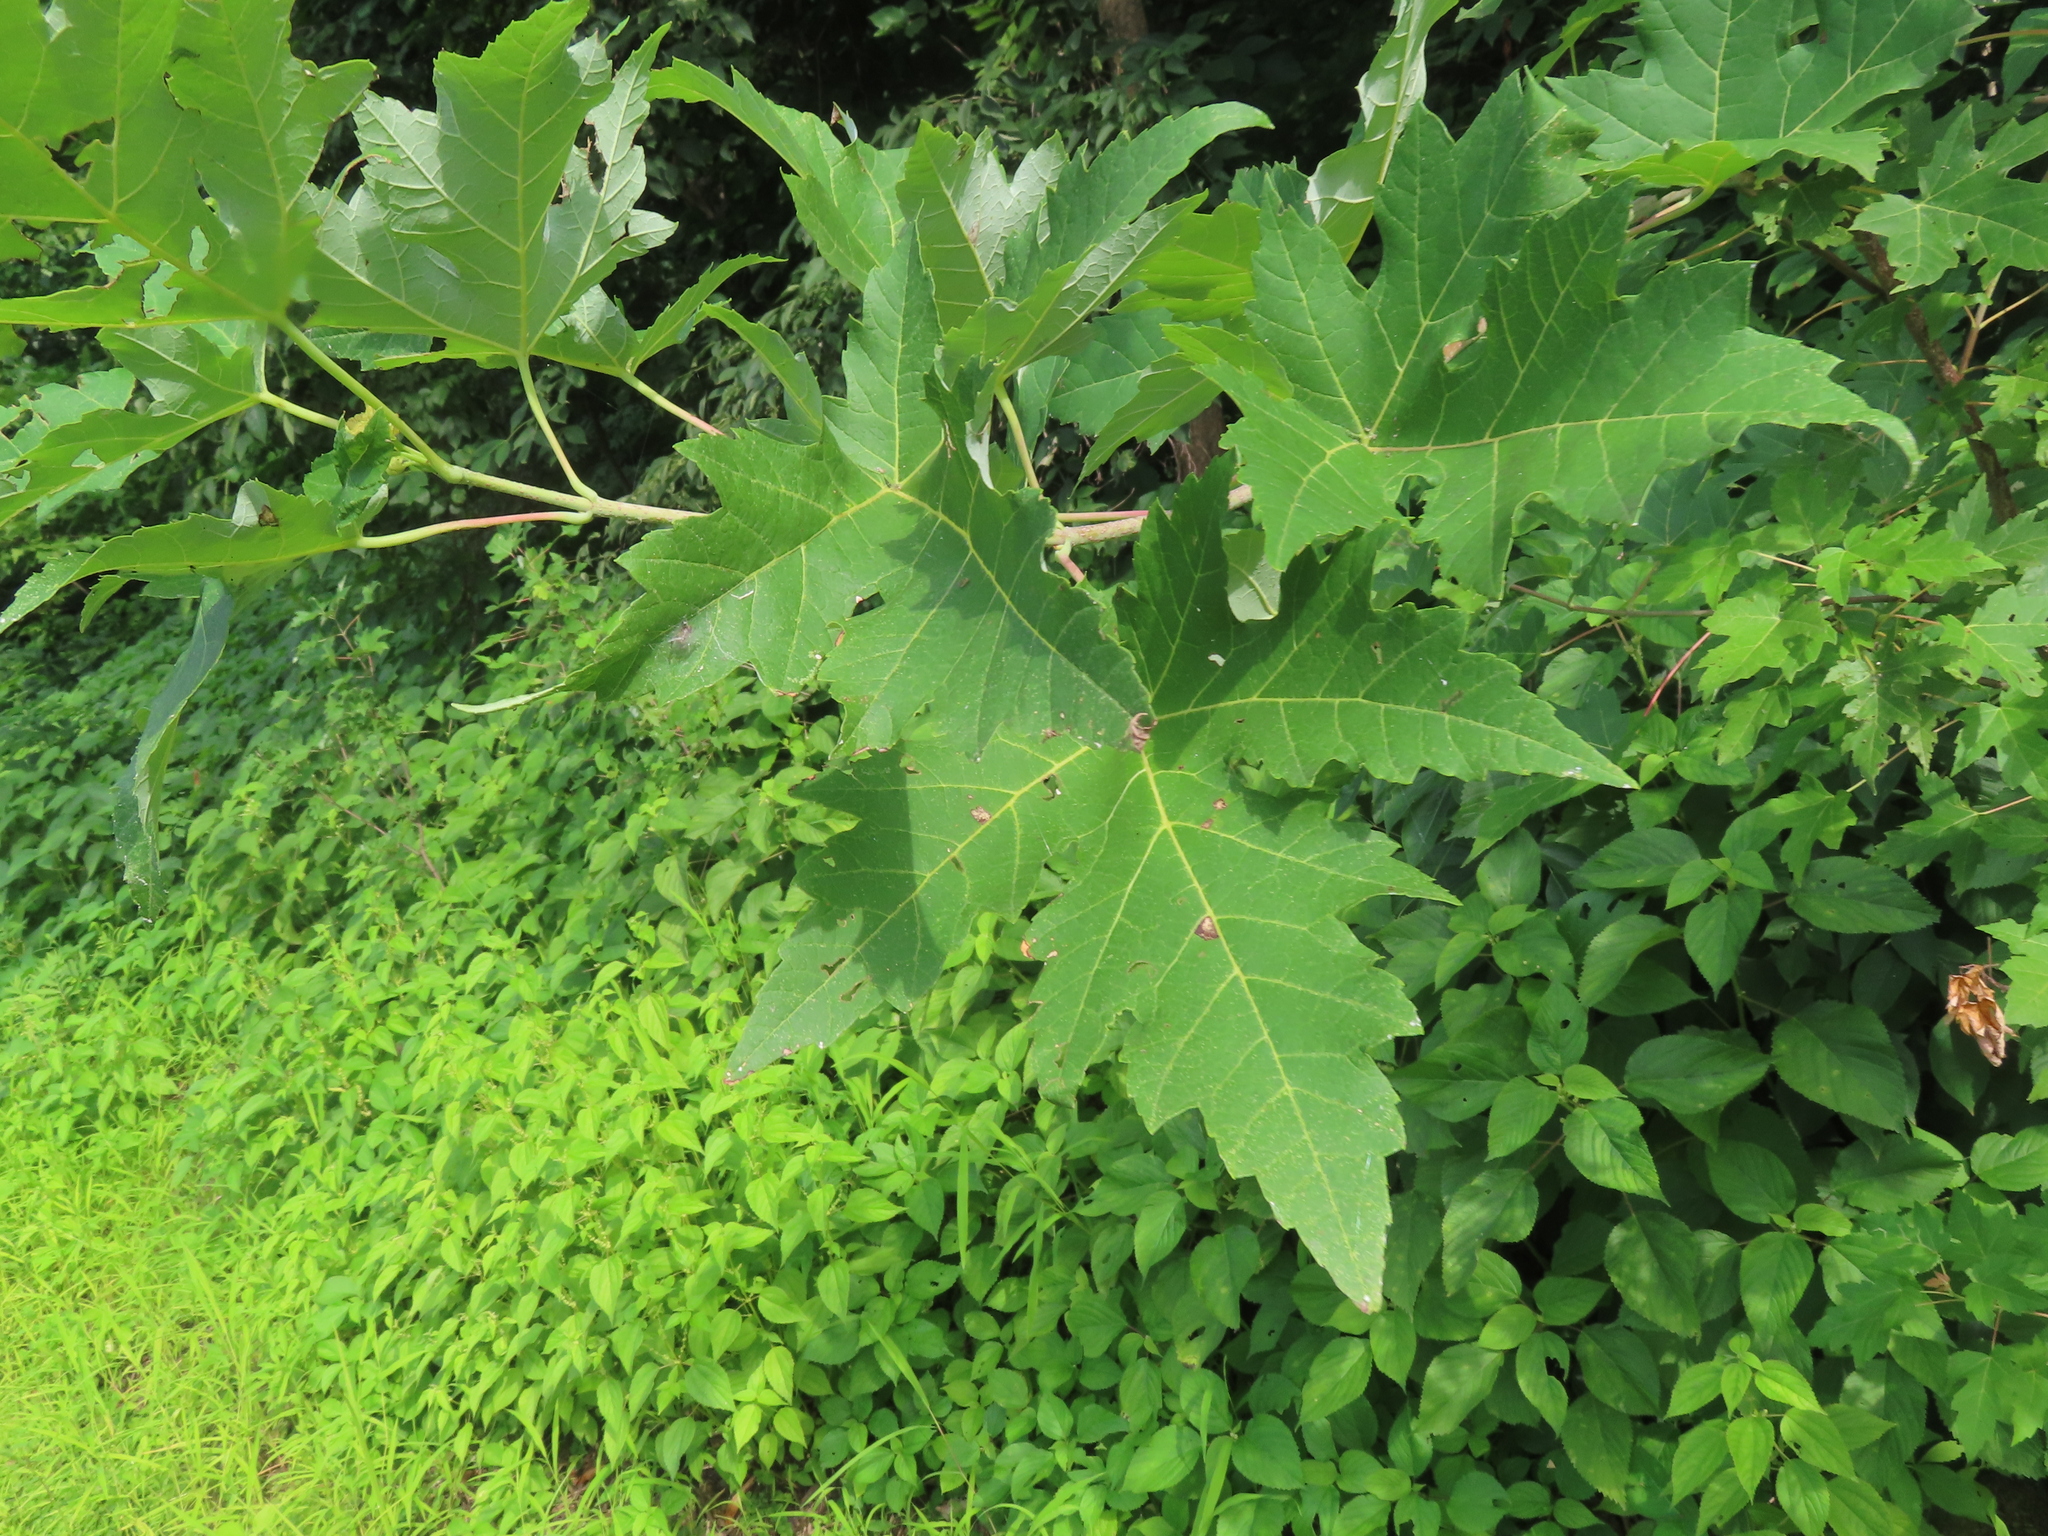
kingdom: Plantae
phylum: Tracheophyta
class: Magnoliopsida
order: Sapindales
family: Sapindaceae
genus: Acer
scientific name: Acer saccharinum
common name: Silver maple
